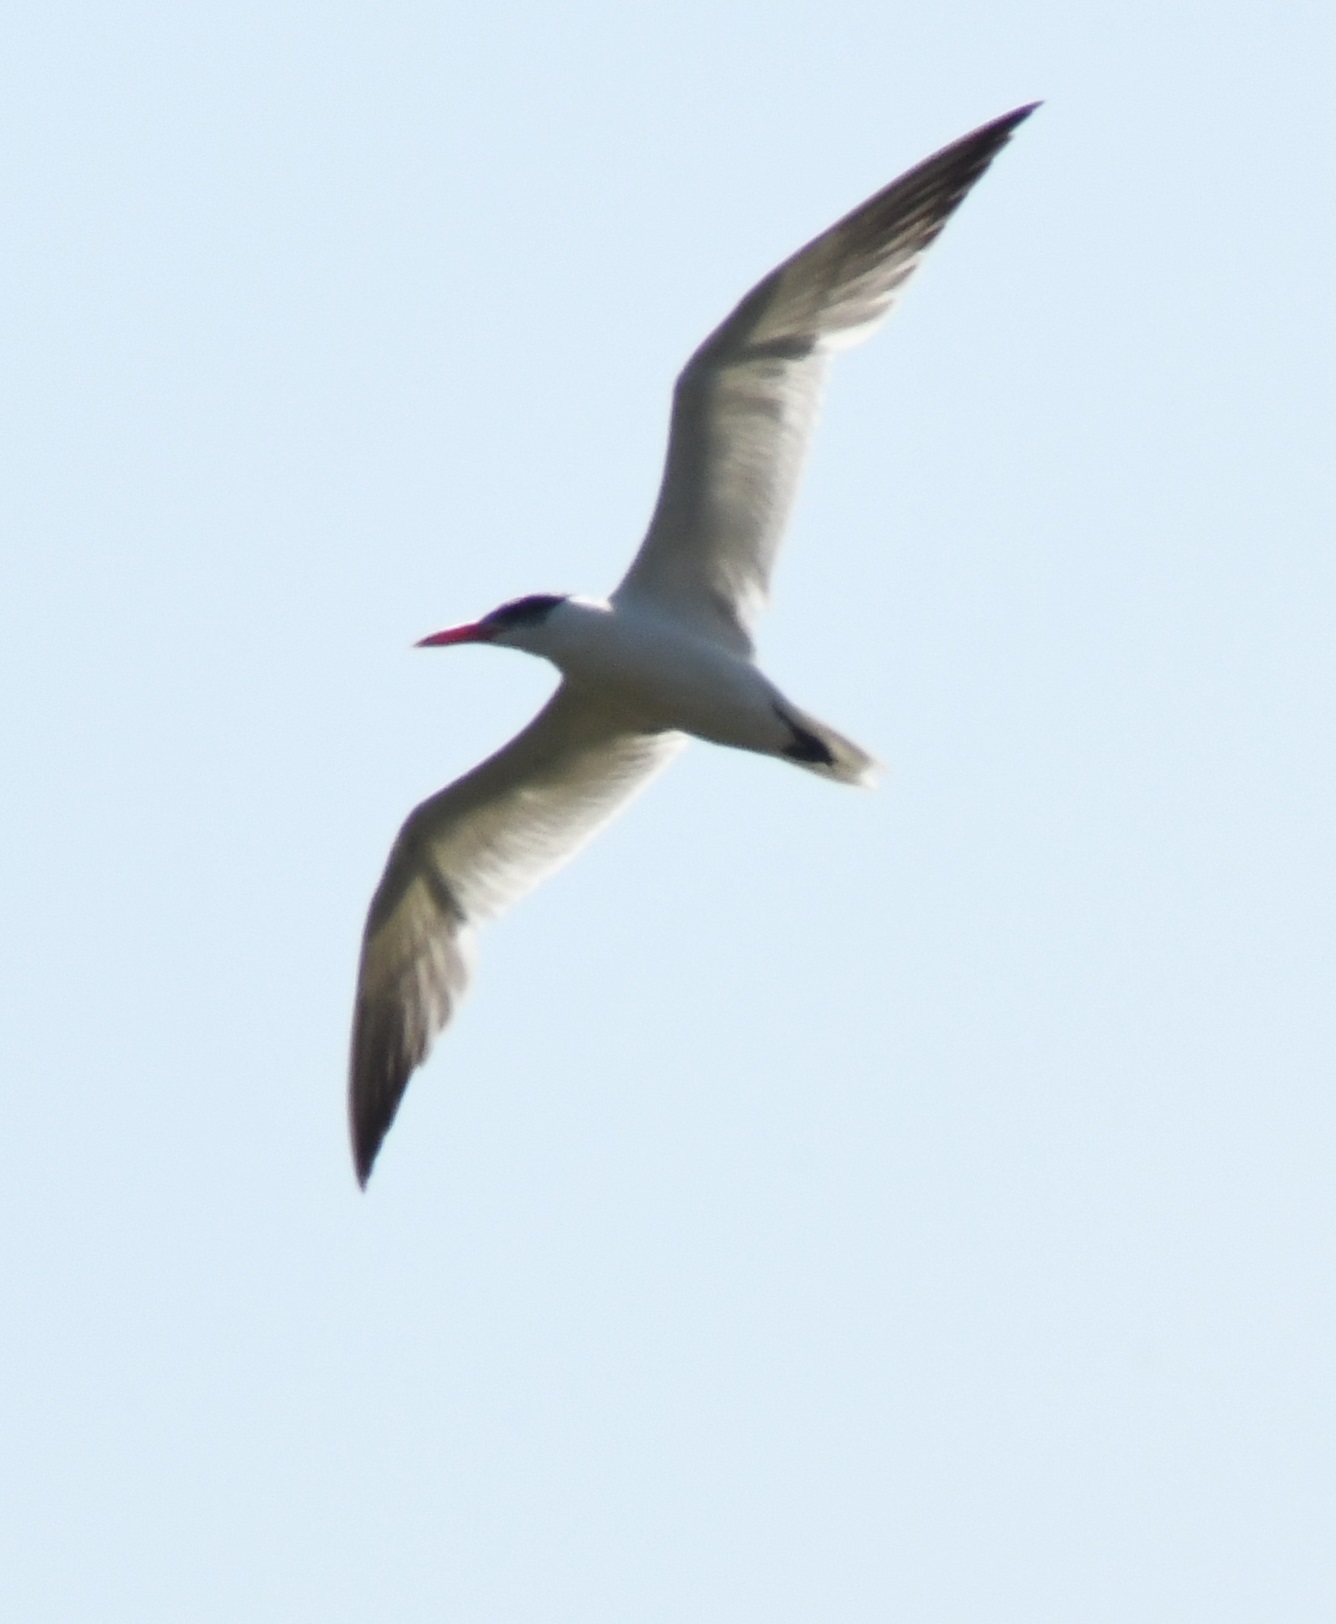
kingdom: Animalia
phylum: Chordata
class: Aves
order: Charadriiformes
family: Laridae
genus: Hydroprogne
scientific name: Hydroprogne caspia
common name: Caspian tern
